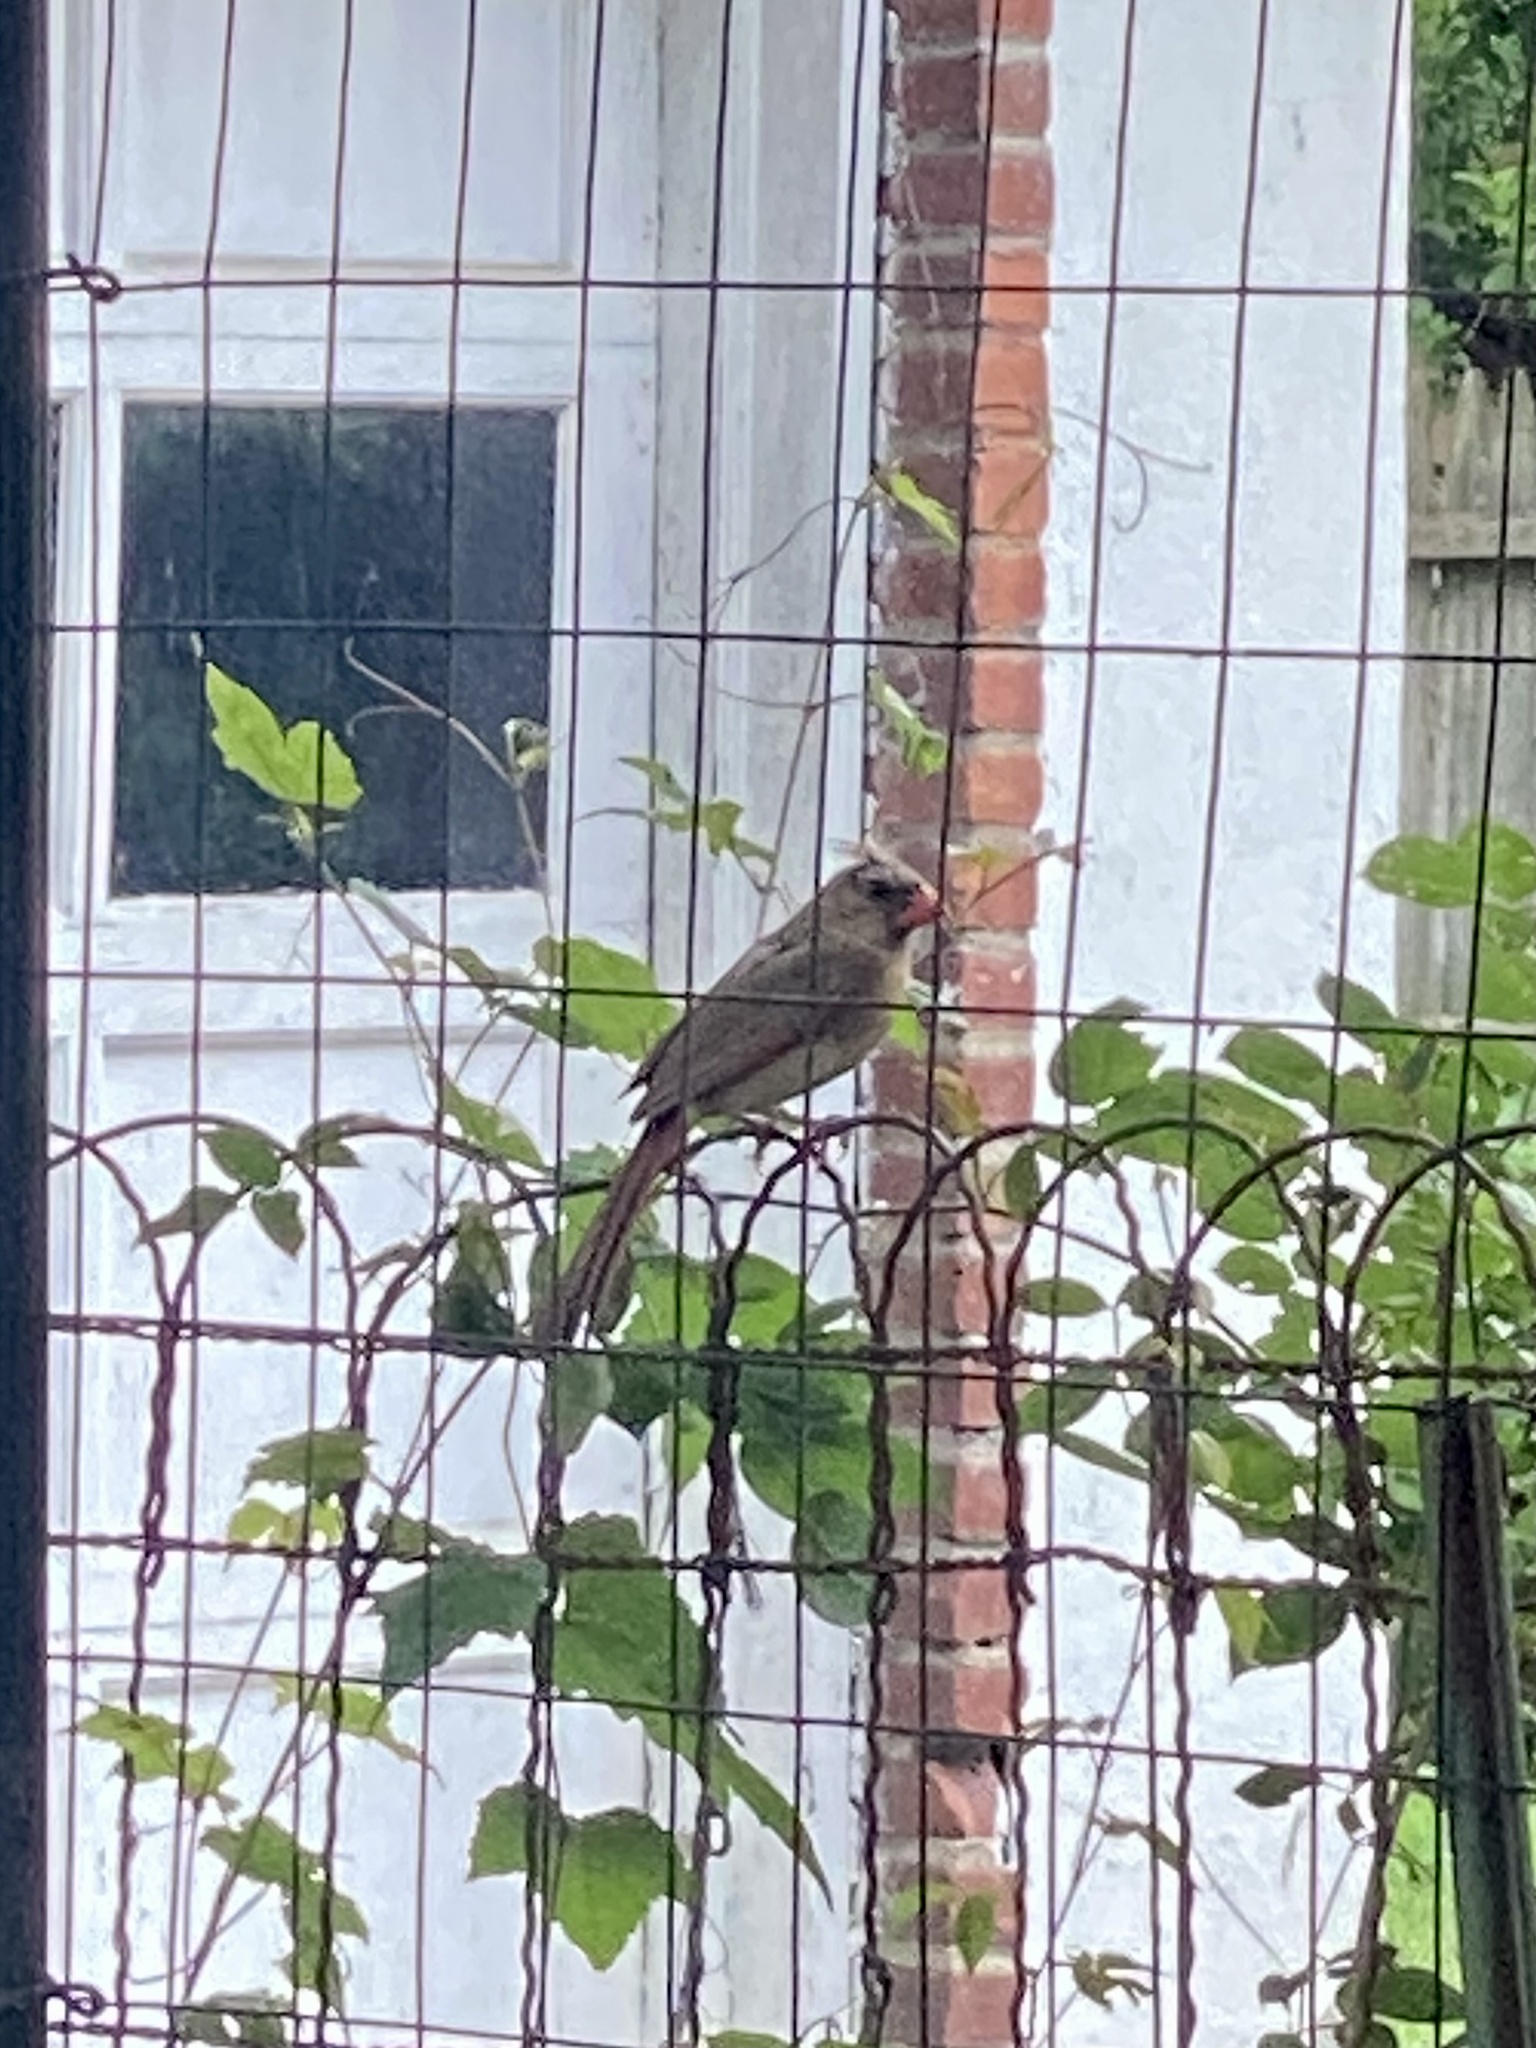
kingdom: Animalia
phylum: Chordata
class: Aves
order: Passeriformes
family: Cardinalidae
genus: Cardinalis
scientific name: Cardinalis cardinalis
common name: Northern cardinal
